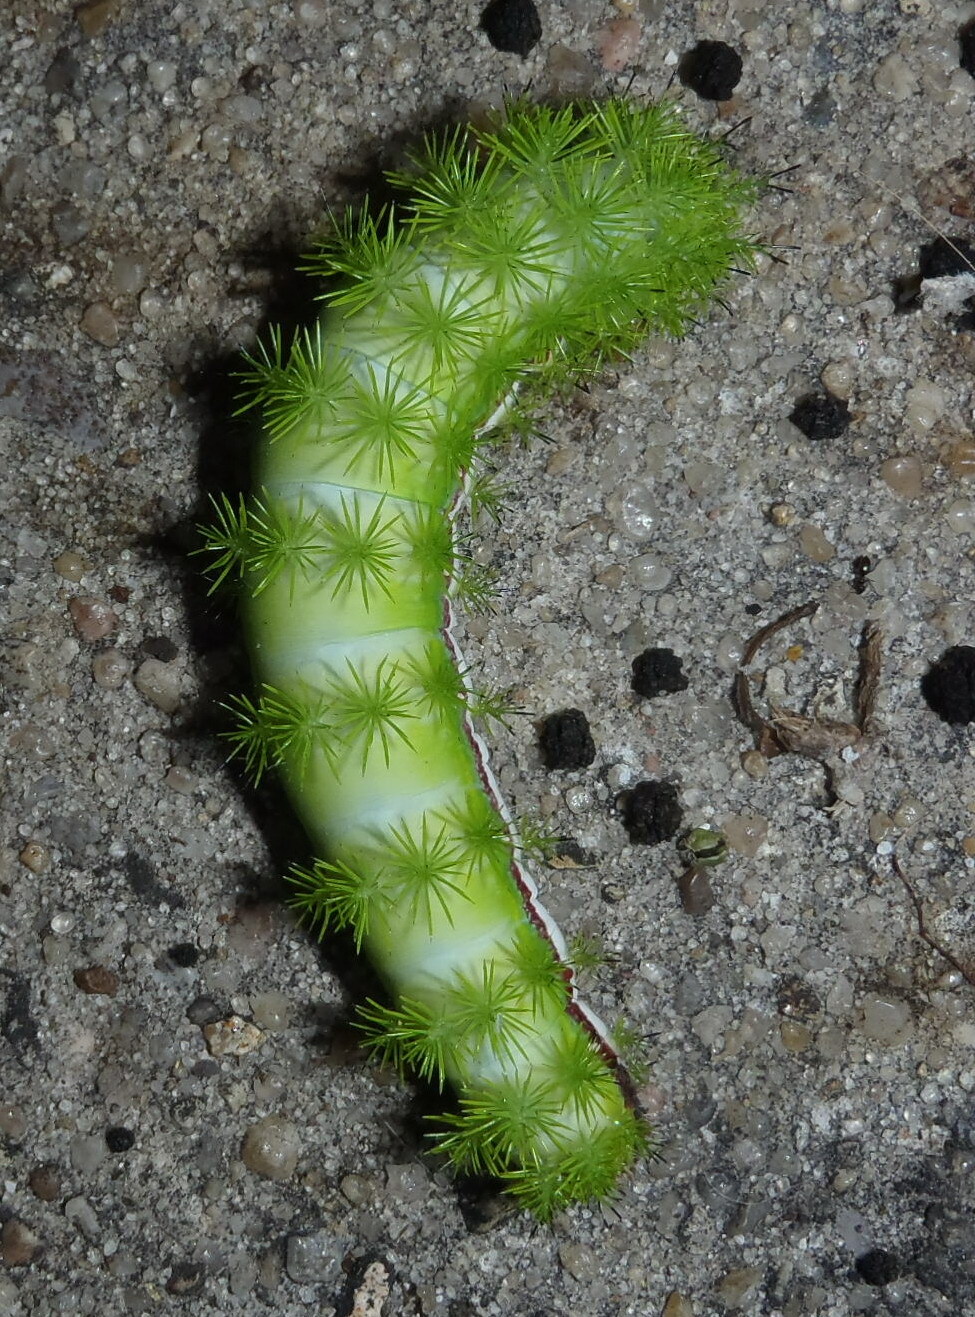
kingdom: Animalia
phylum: Arthropoda
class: Insecta
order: Lepidoptera
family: Saturniidae
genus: Automeris
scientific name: Automeris io
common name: Io moth
